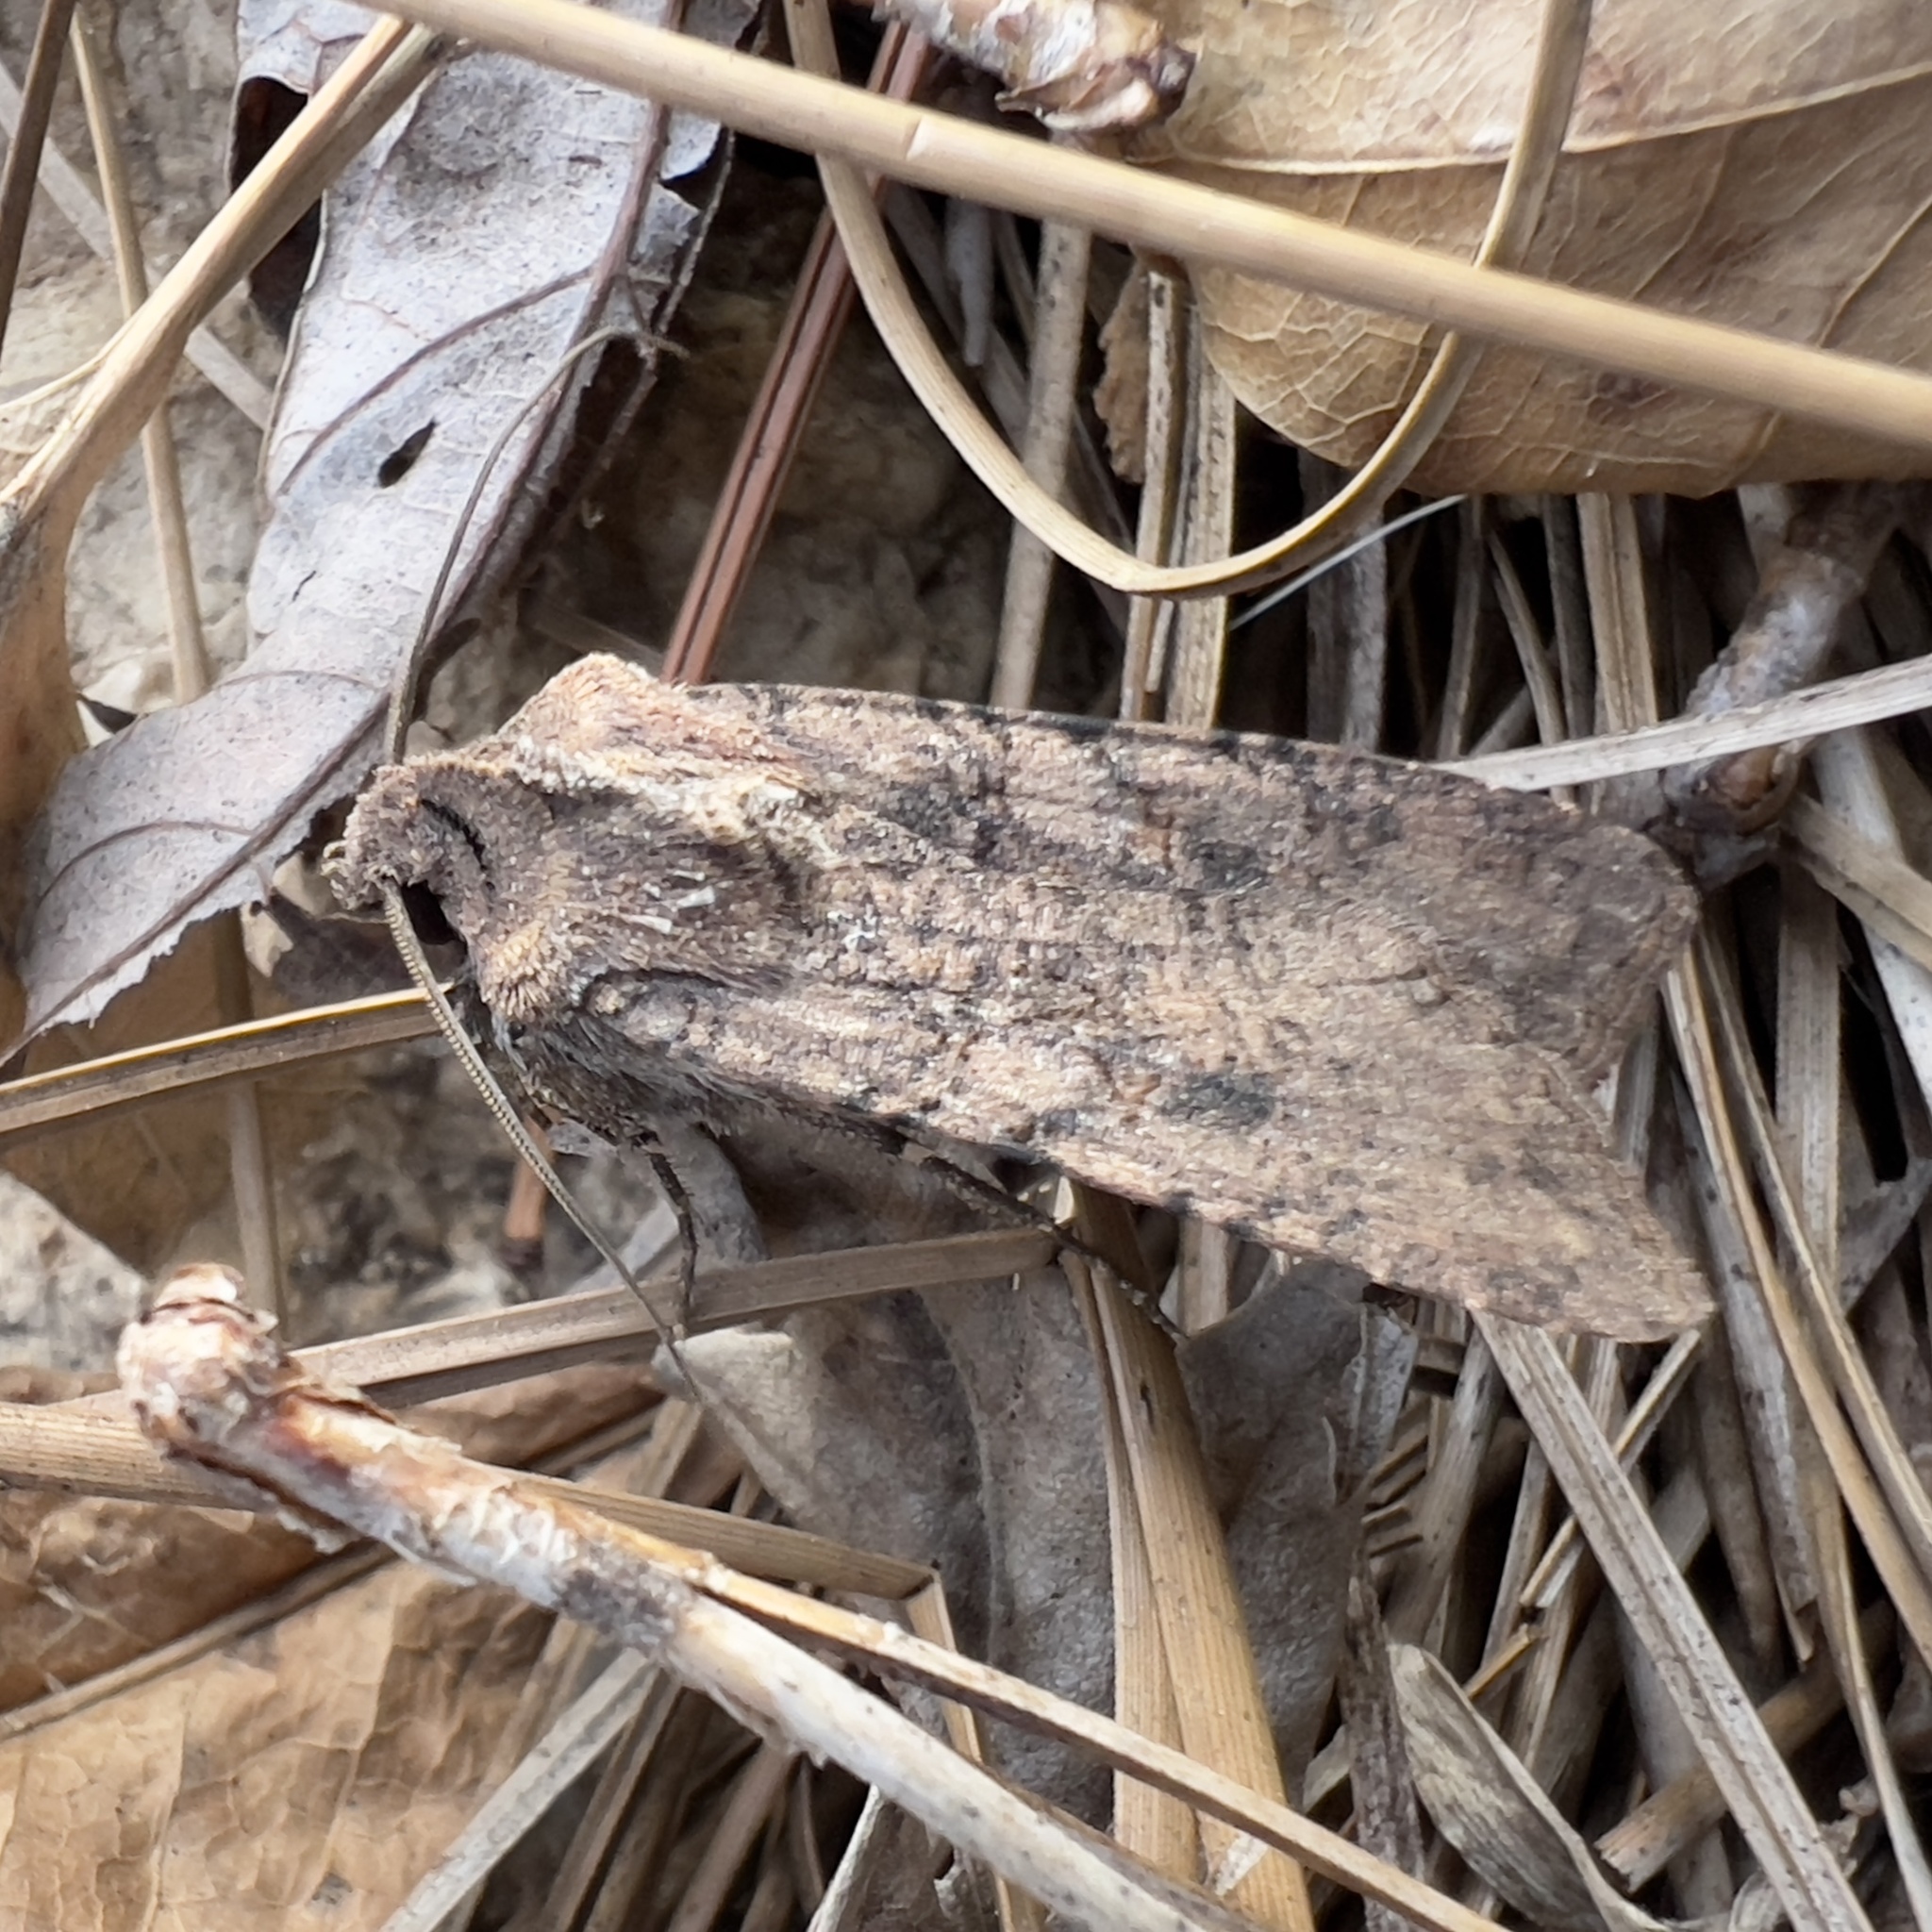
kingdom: Animalia
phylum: Arthropoda
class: Insecta
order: Lepidoptera
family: Noctuidae
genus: Peridroma
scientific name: Peridroma saucia
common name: Pearly underwing
